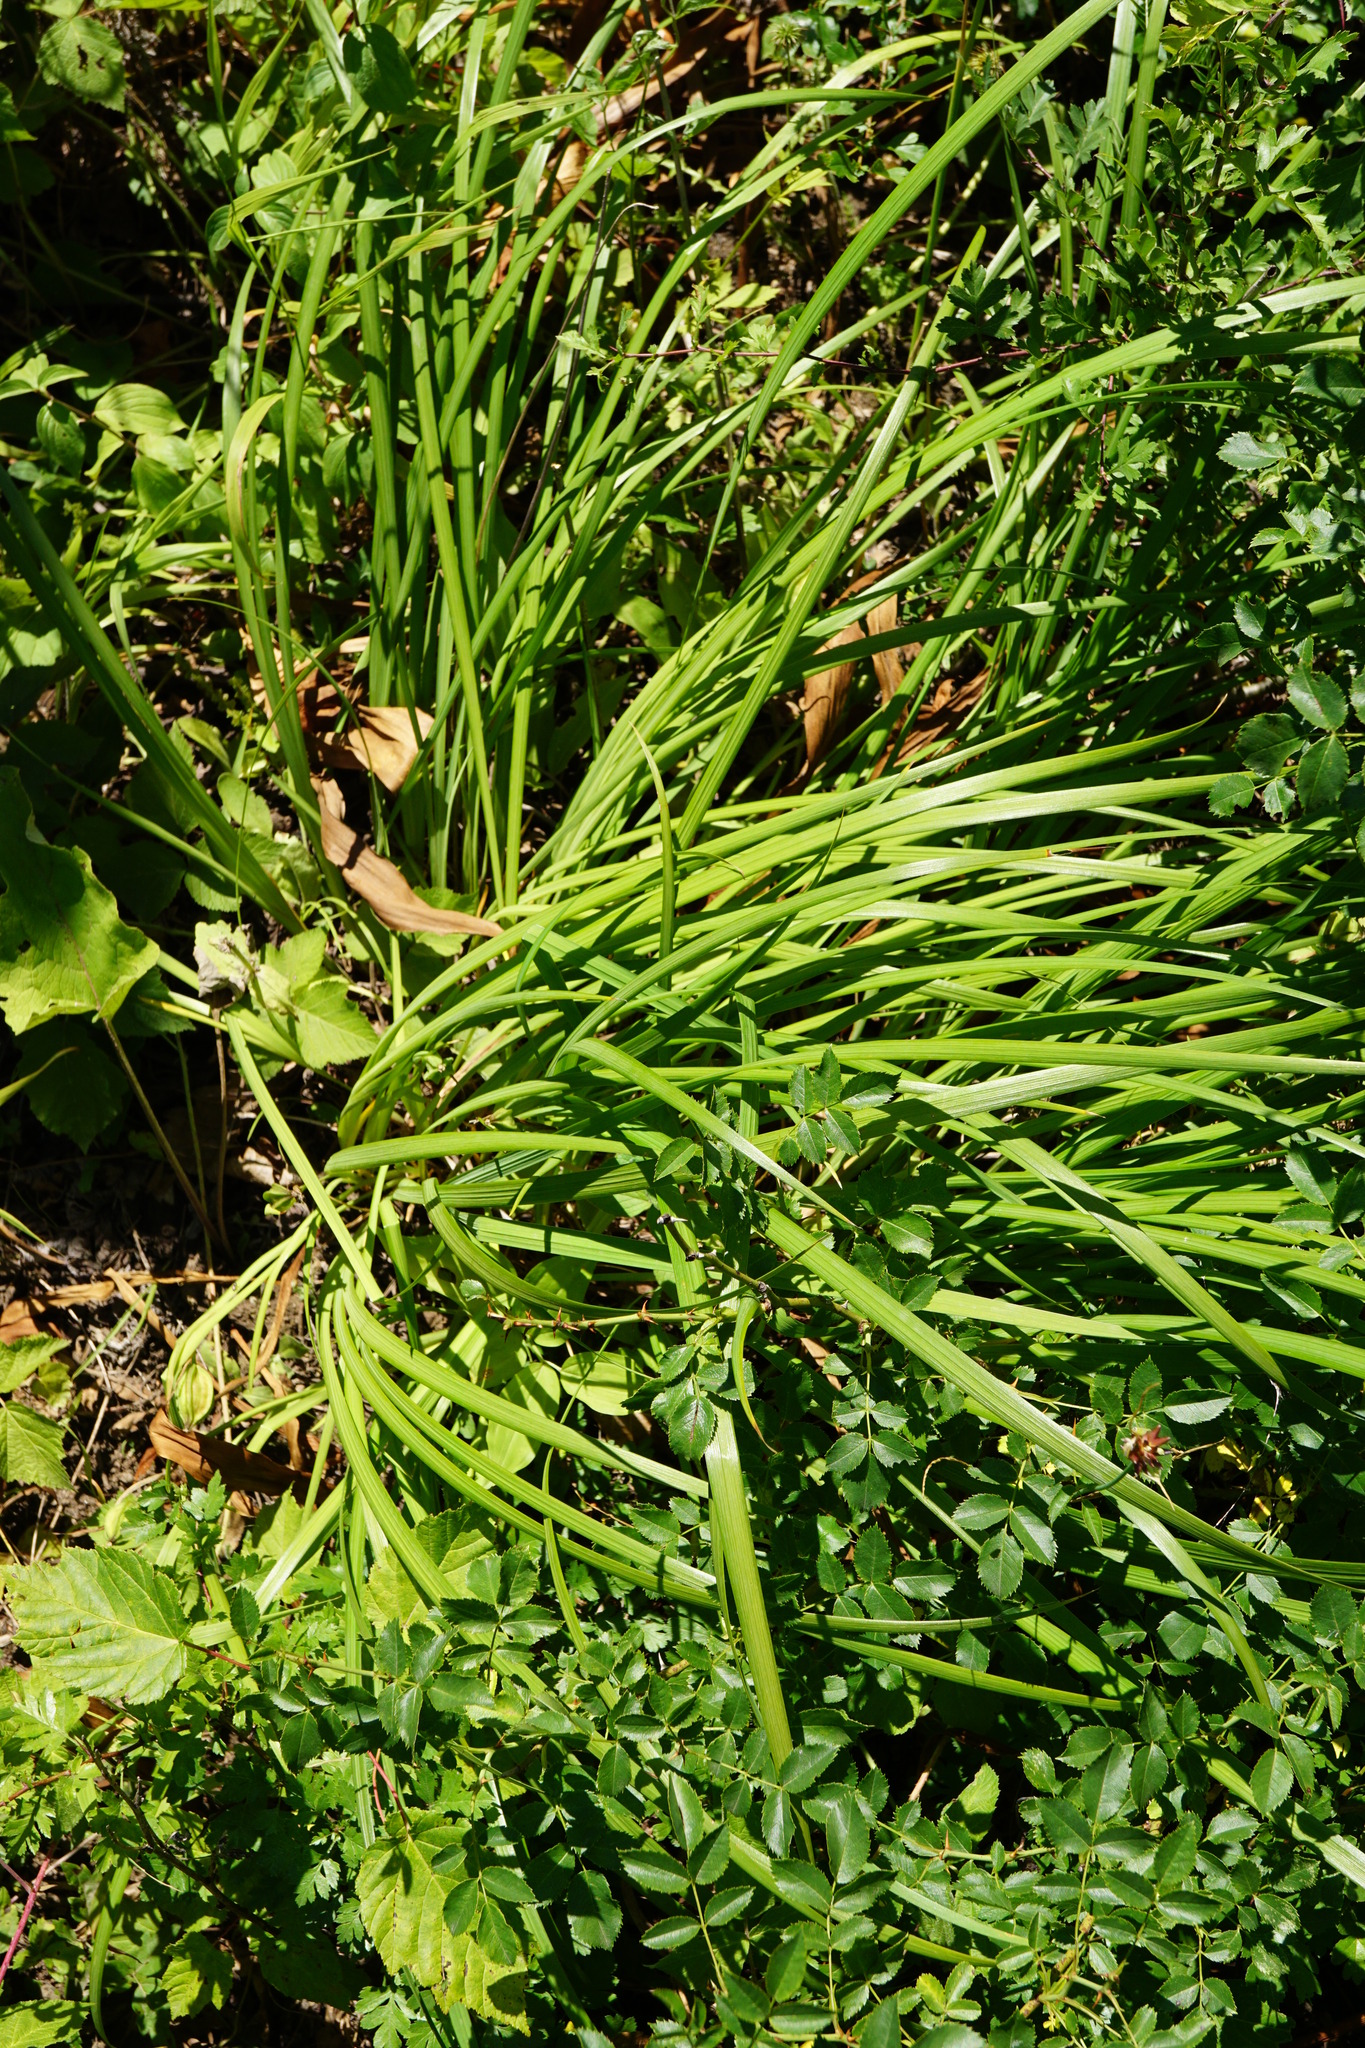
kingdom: Plantae
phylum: Tracheophyta
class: Liliopsida
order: Asparagales
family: Iridaceae
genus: Iris
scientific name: Iris graminea
